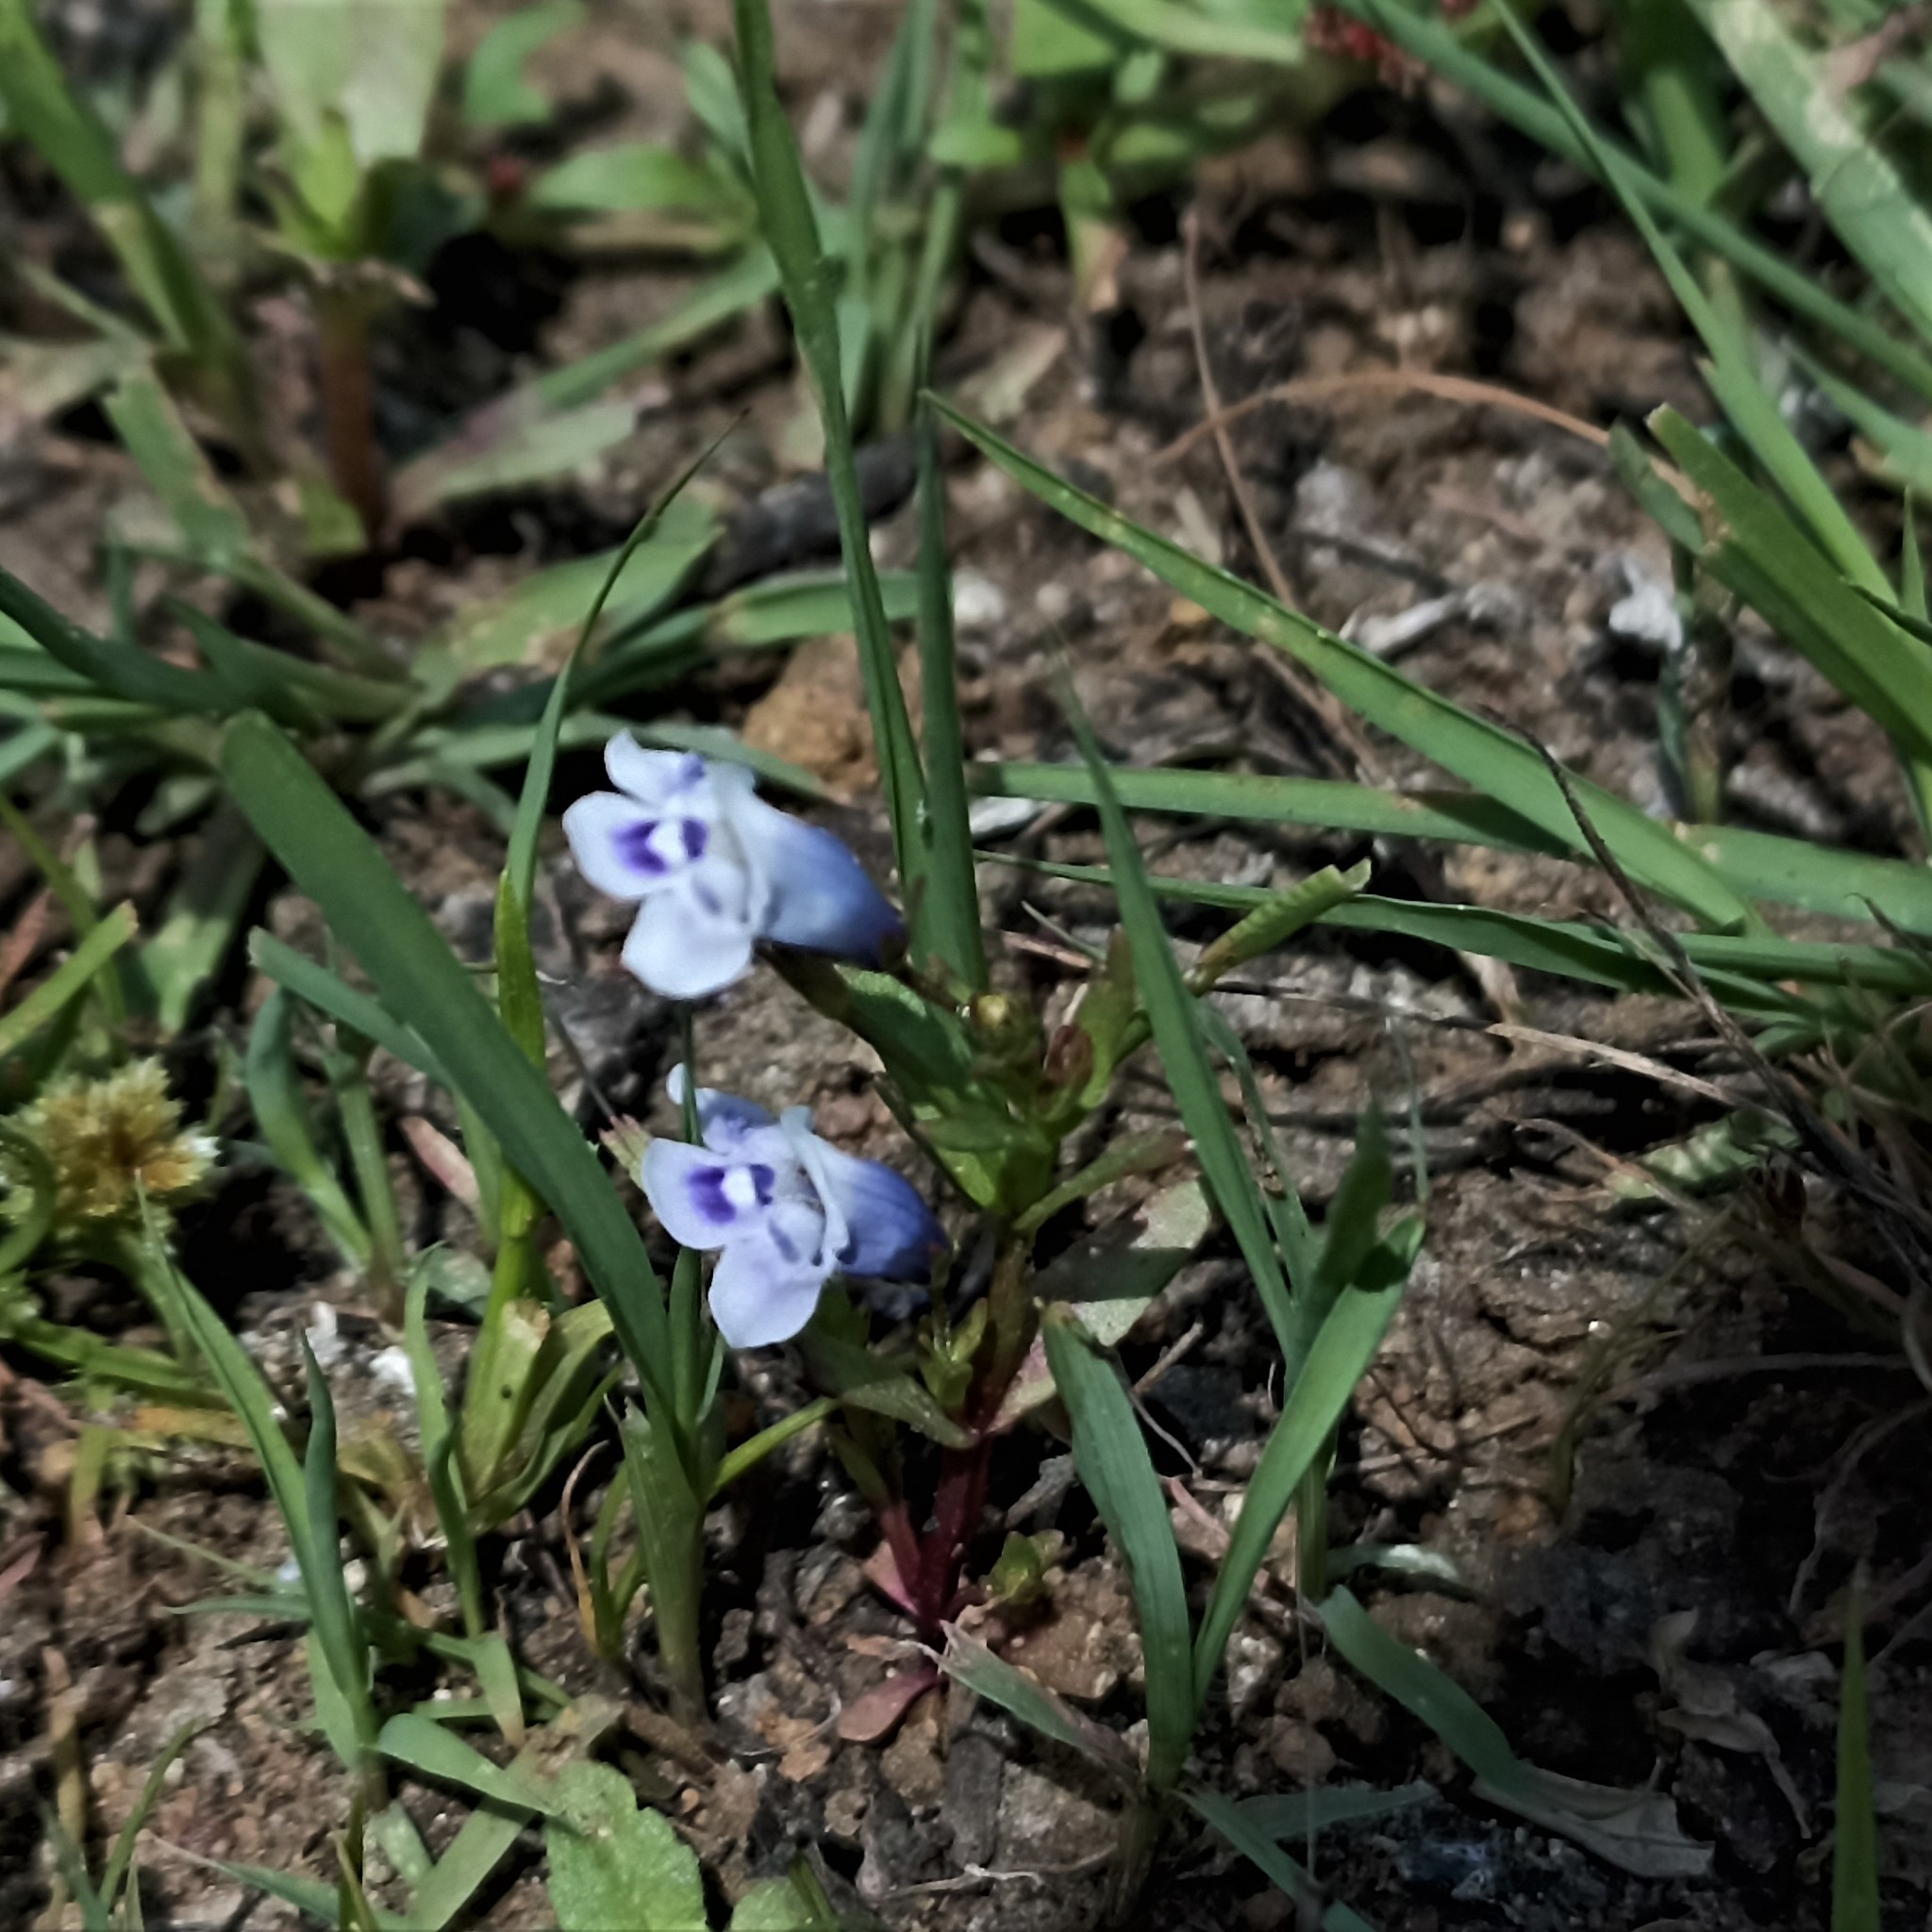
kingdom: Plantae
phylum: Tracheophyta
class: Magnoliopsida
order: Lamiales
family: Linderniaceae
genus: Lindernia
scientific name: Lindernia hyssopioides
